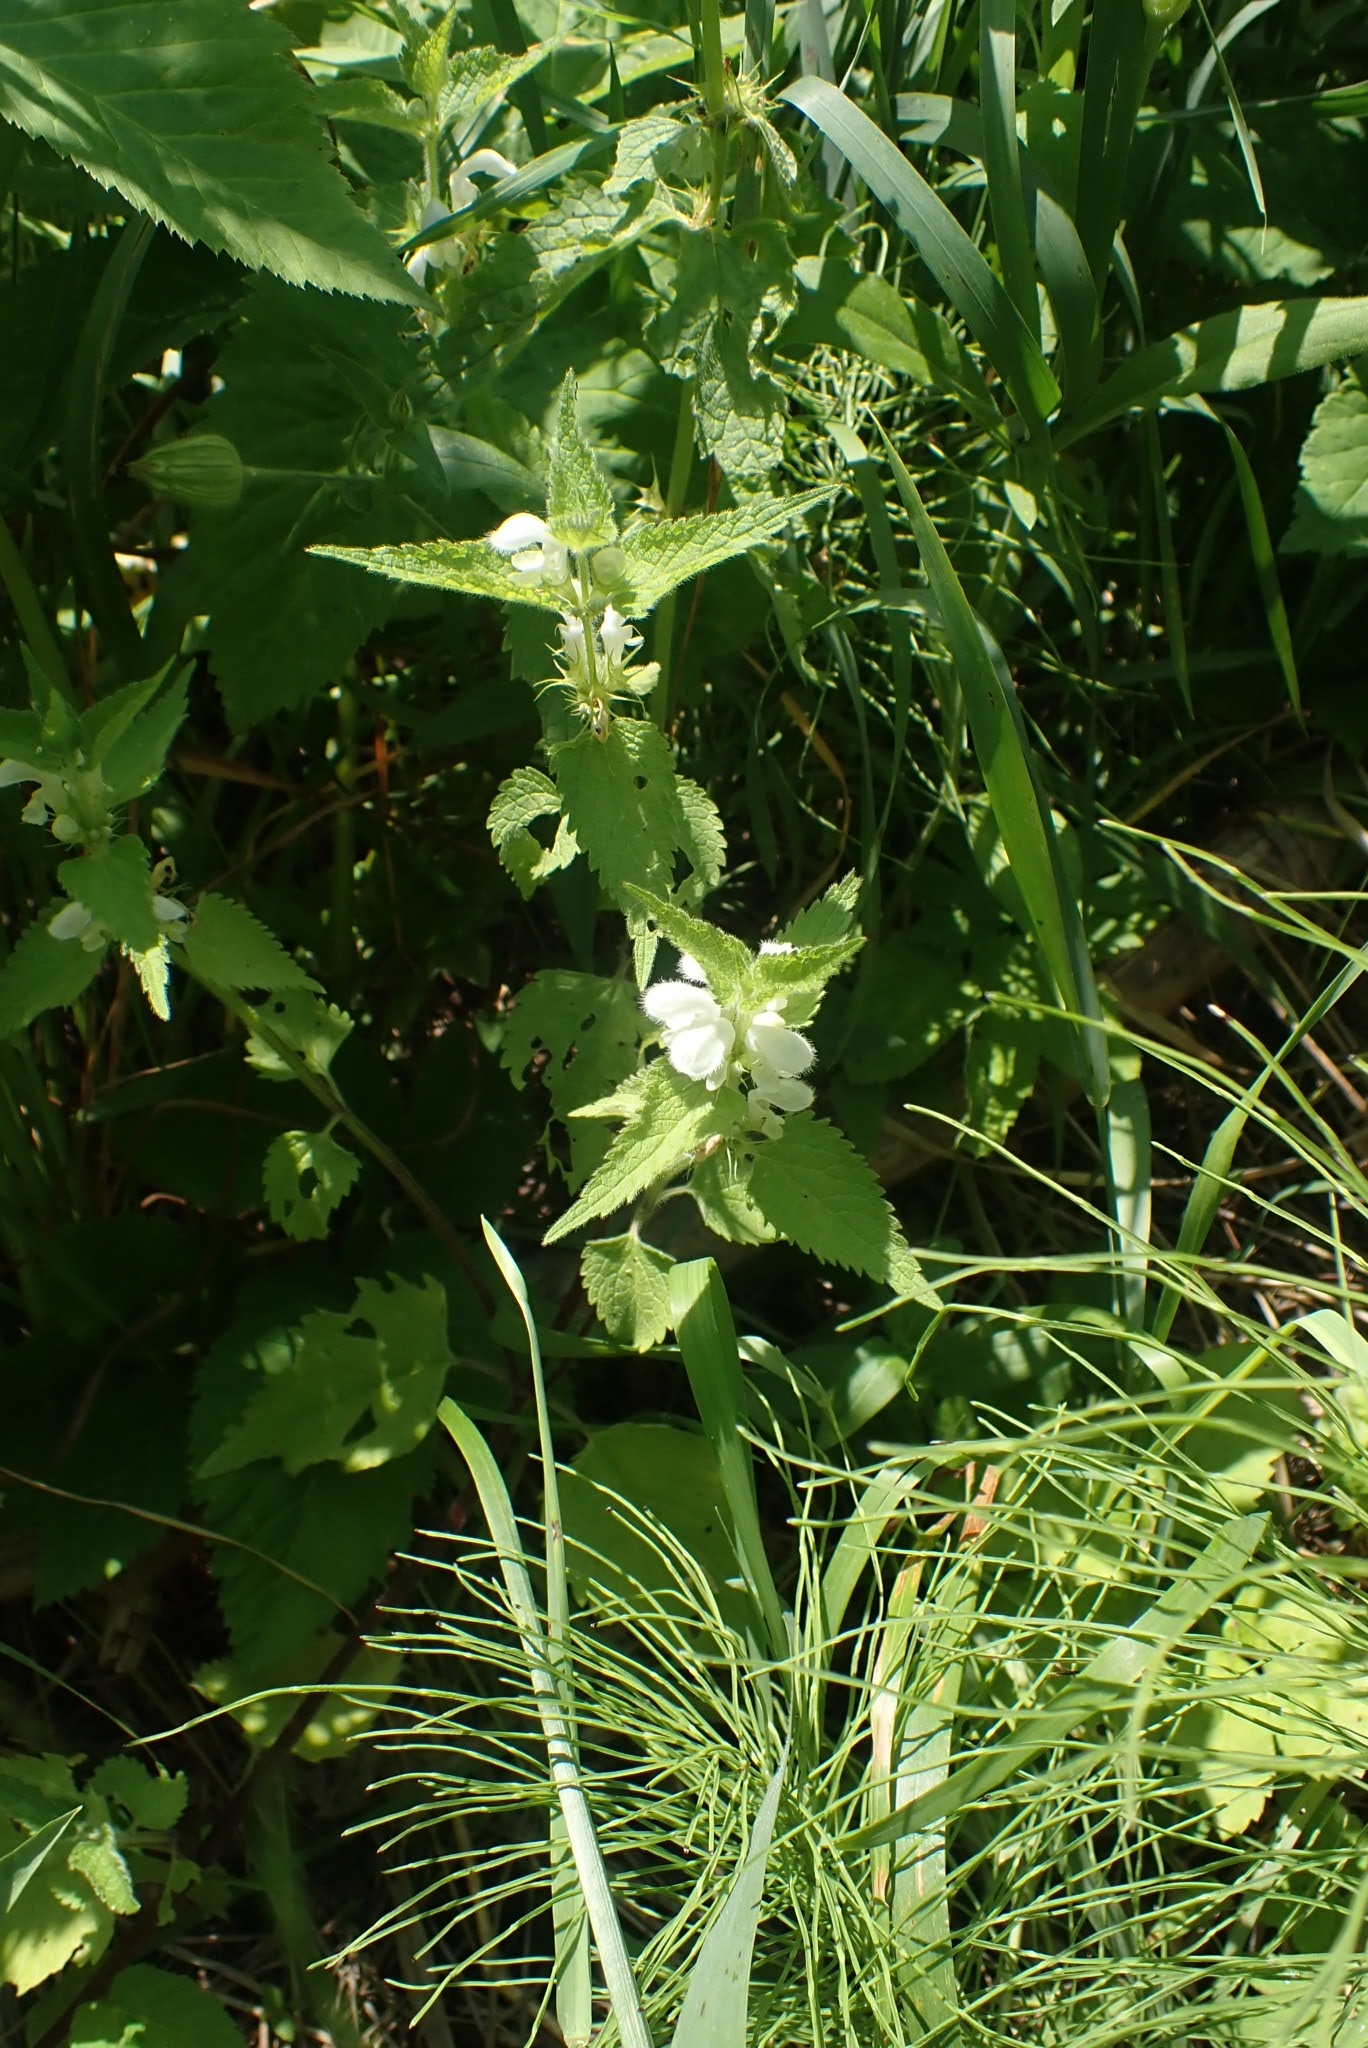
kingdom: Plantae
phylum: Tracheophyta
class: Magnoliopsida
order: Lamiales
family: Lamiaceae
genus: Lamium
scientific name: Lamium album
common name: White dead-nettle
